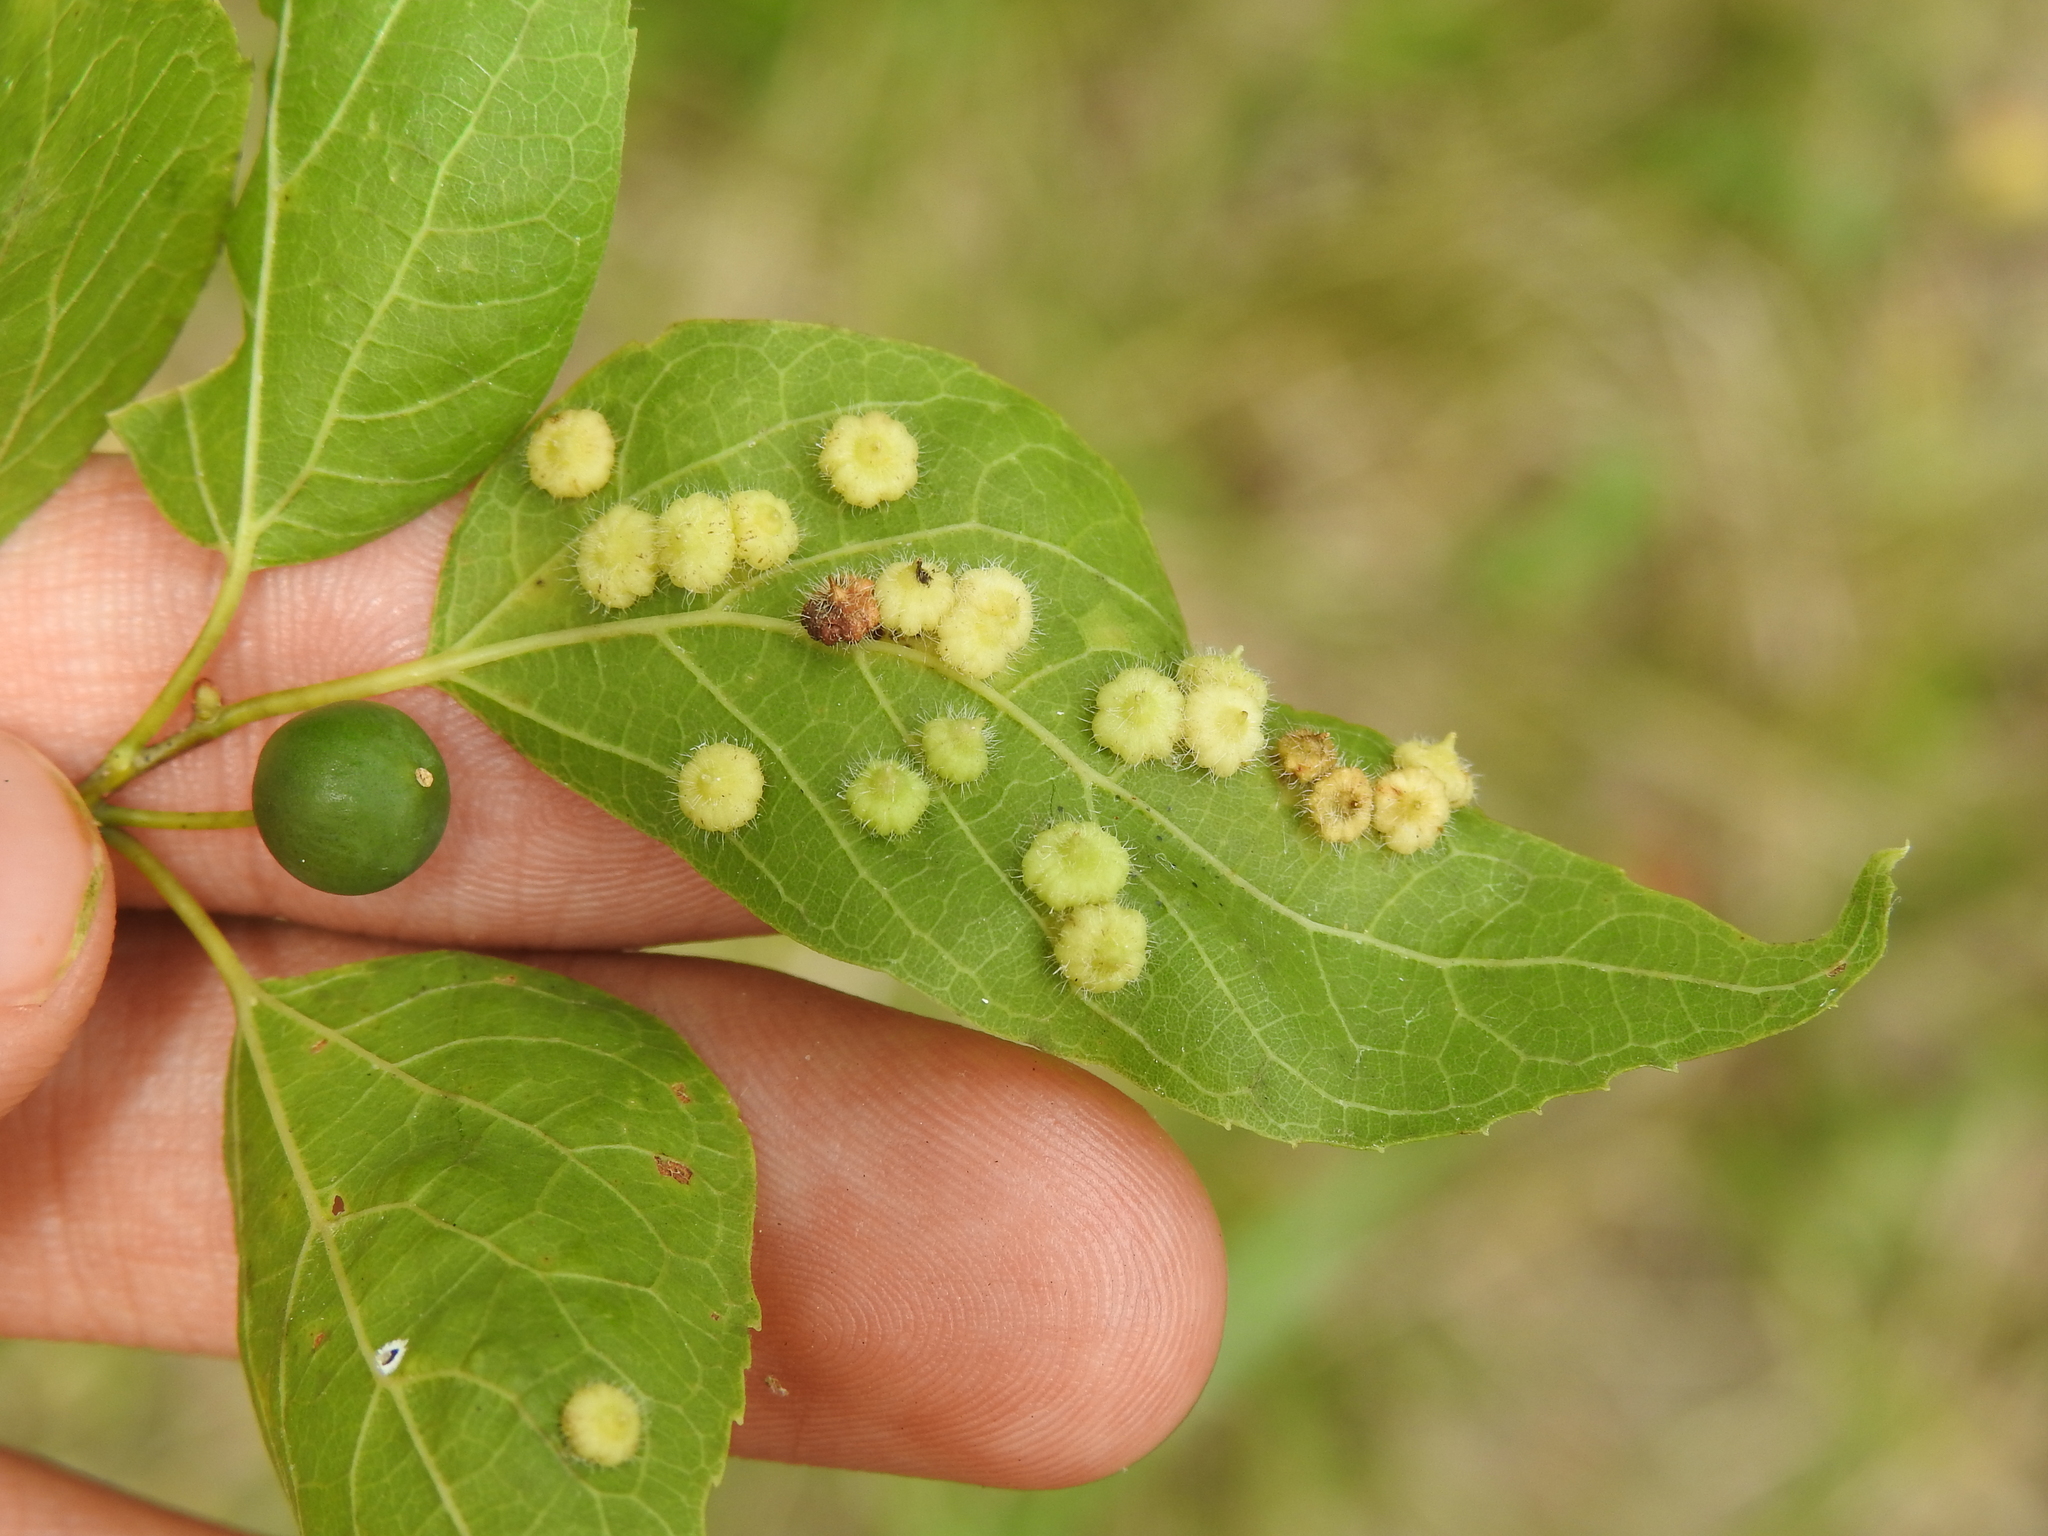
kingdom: Animalia
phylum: Arthropoda
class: Insecta
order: Diptera
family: Cecidomyiidae
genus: Celticecis
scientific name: Celticecis capsularis
